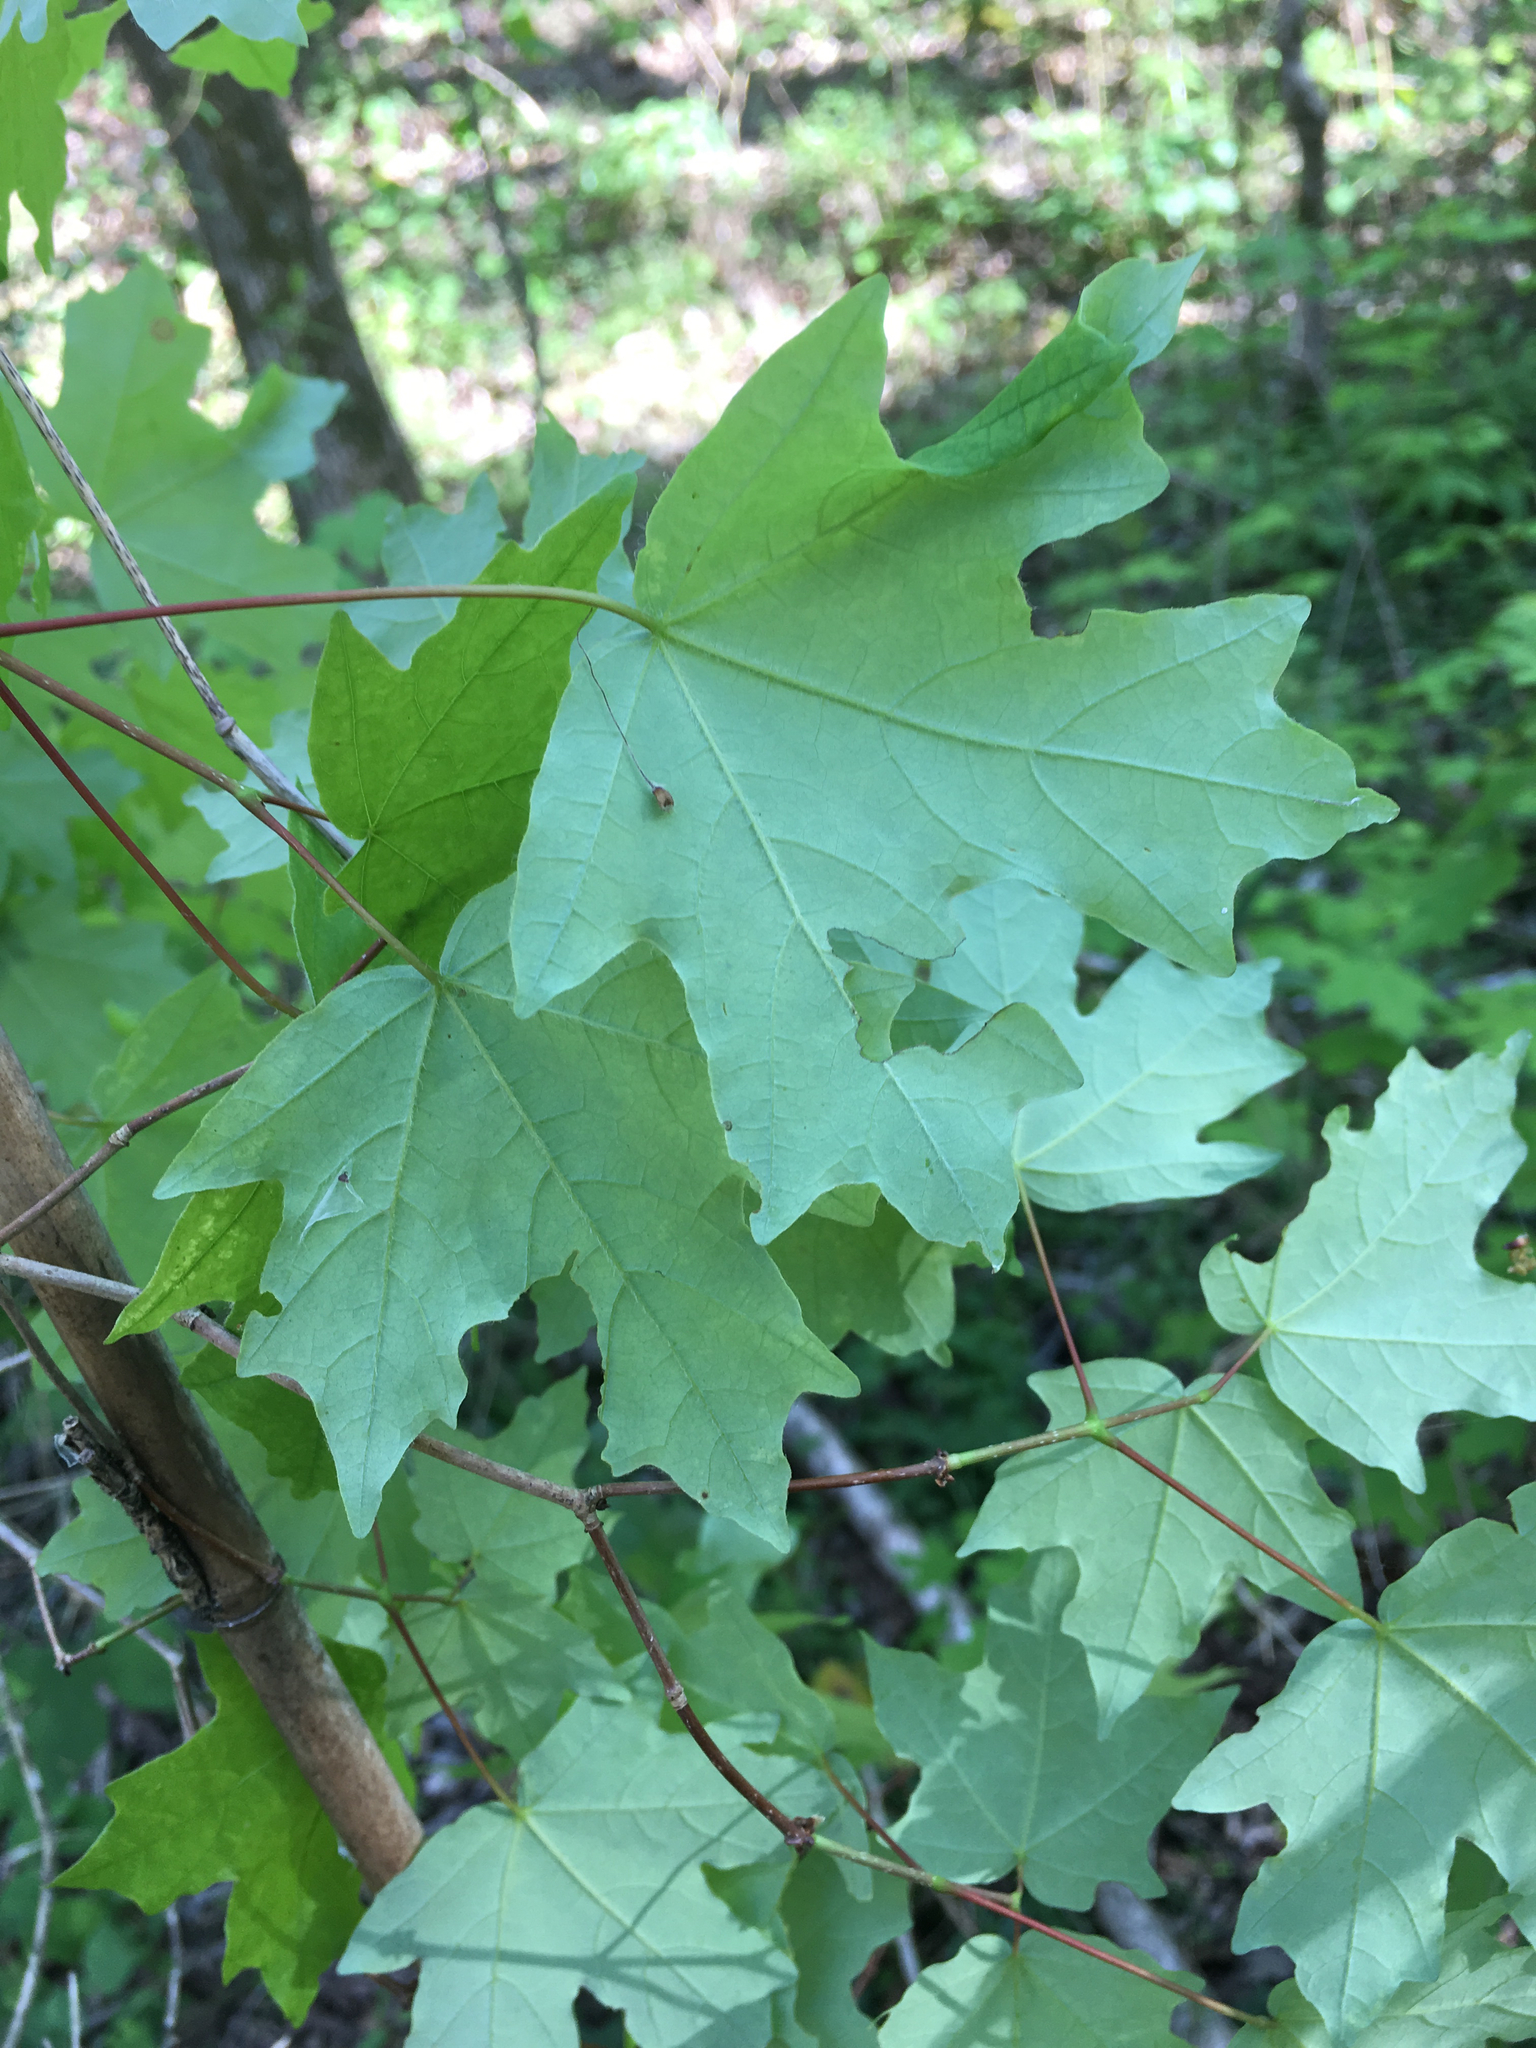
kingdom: Plantae
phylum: Tracheophyta
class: Magnoliopsida
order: Sapindales
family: Sapindaceae
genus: Acer
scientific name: Acer floridanum
